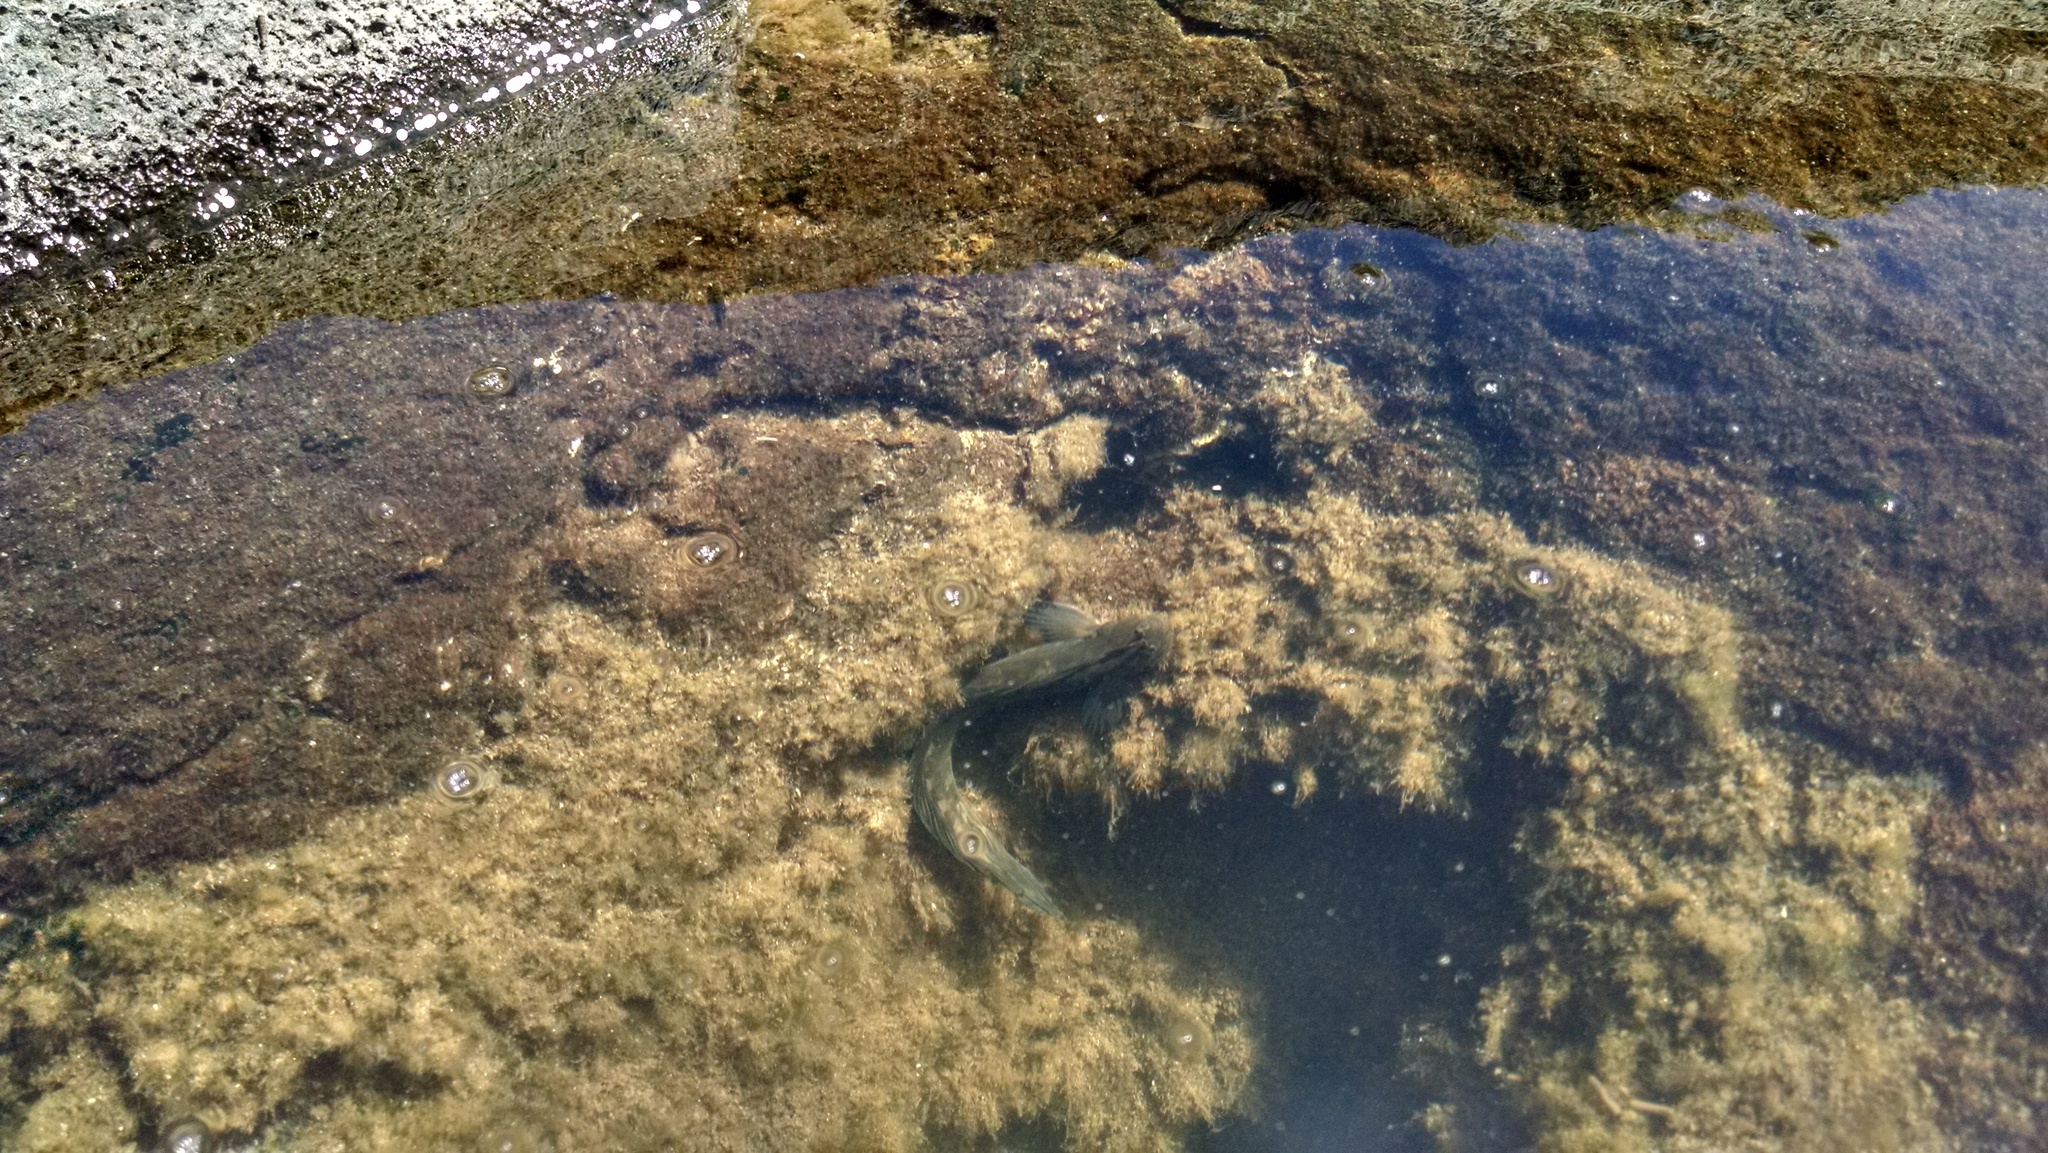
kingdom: Animalia
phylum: Chordata
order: Perciformes
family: Blenniidae
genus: Istiblennius
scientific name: Istiblennius zebra
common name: Zebra blenny
